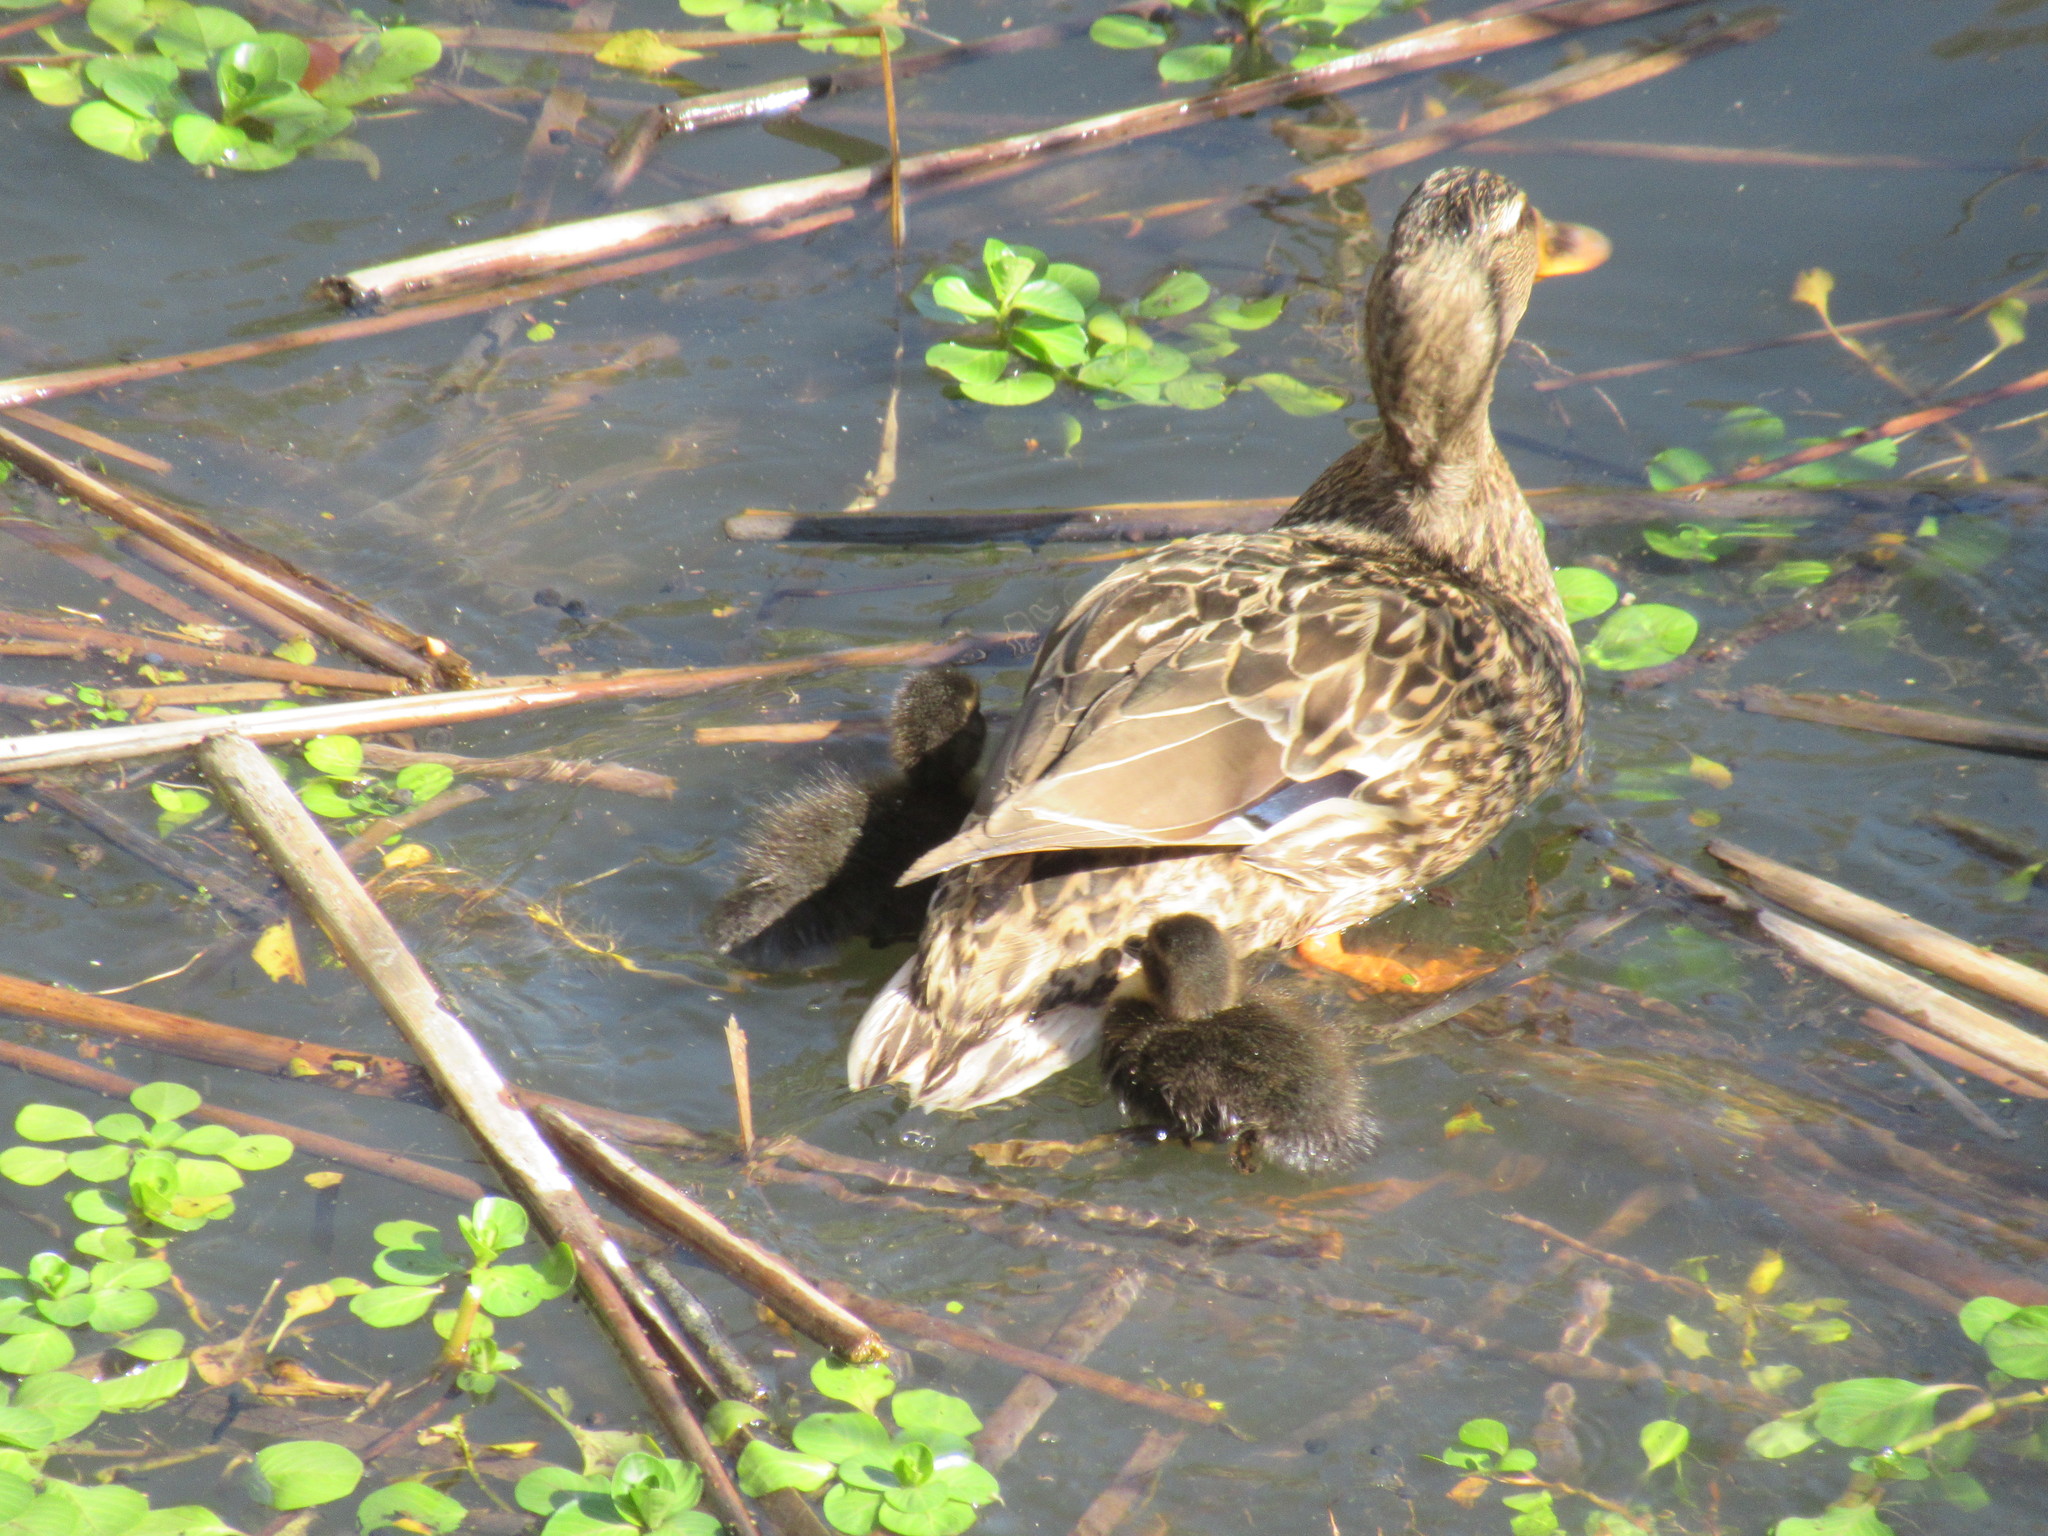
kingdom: Animalia
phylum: Chordata
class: Aves
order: Anseriformes
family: Anatidae
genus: Anas
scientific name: Anas platyrhynchos
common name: Mallard
